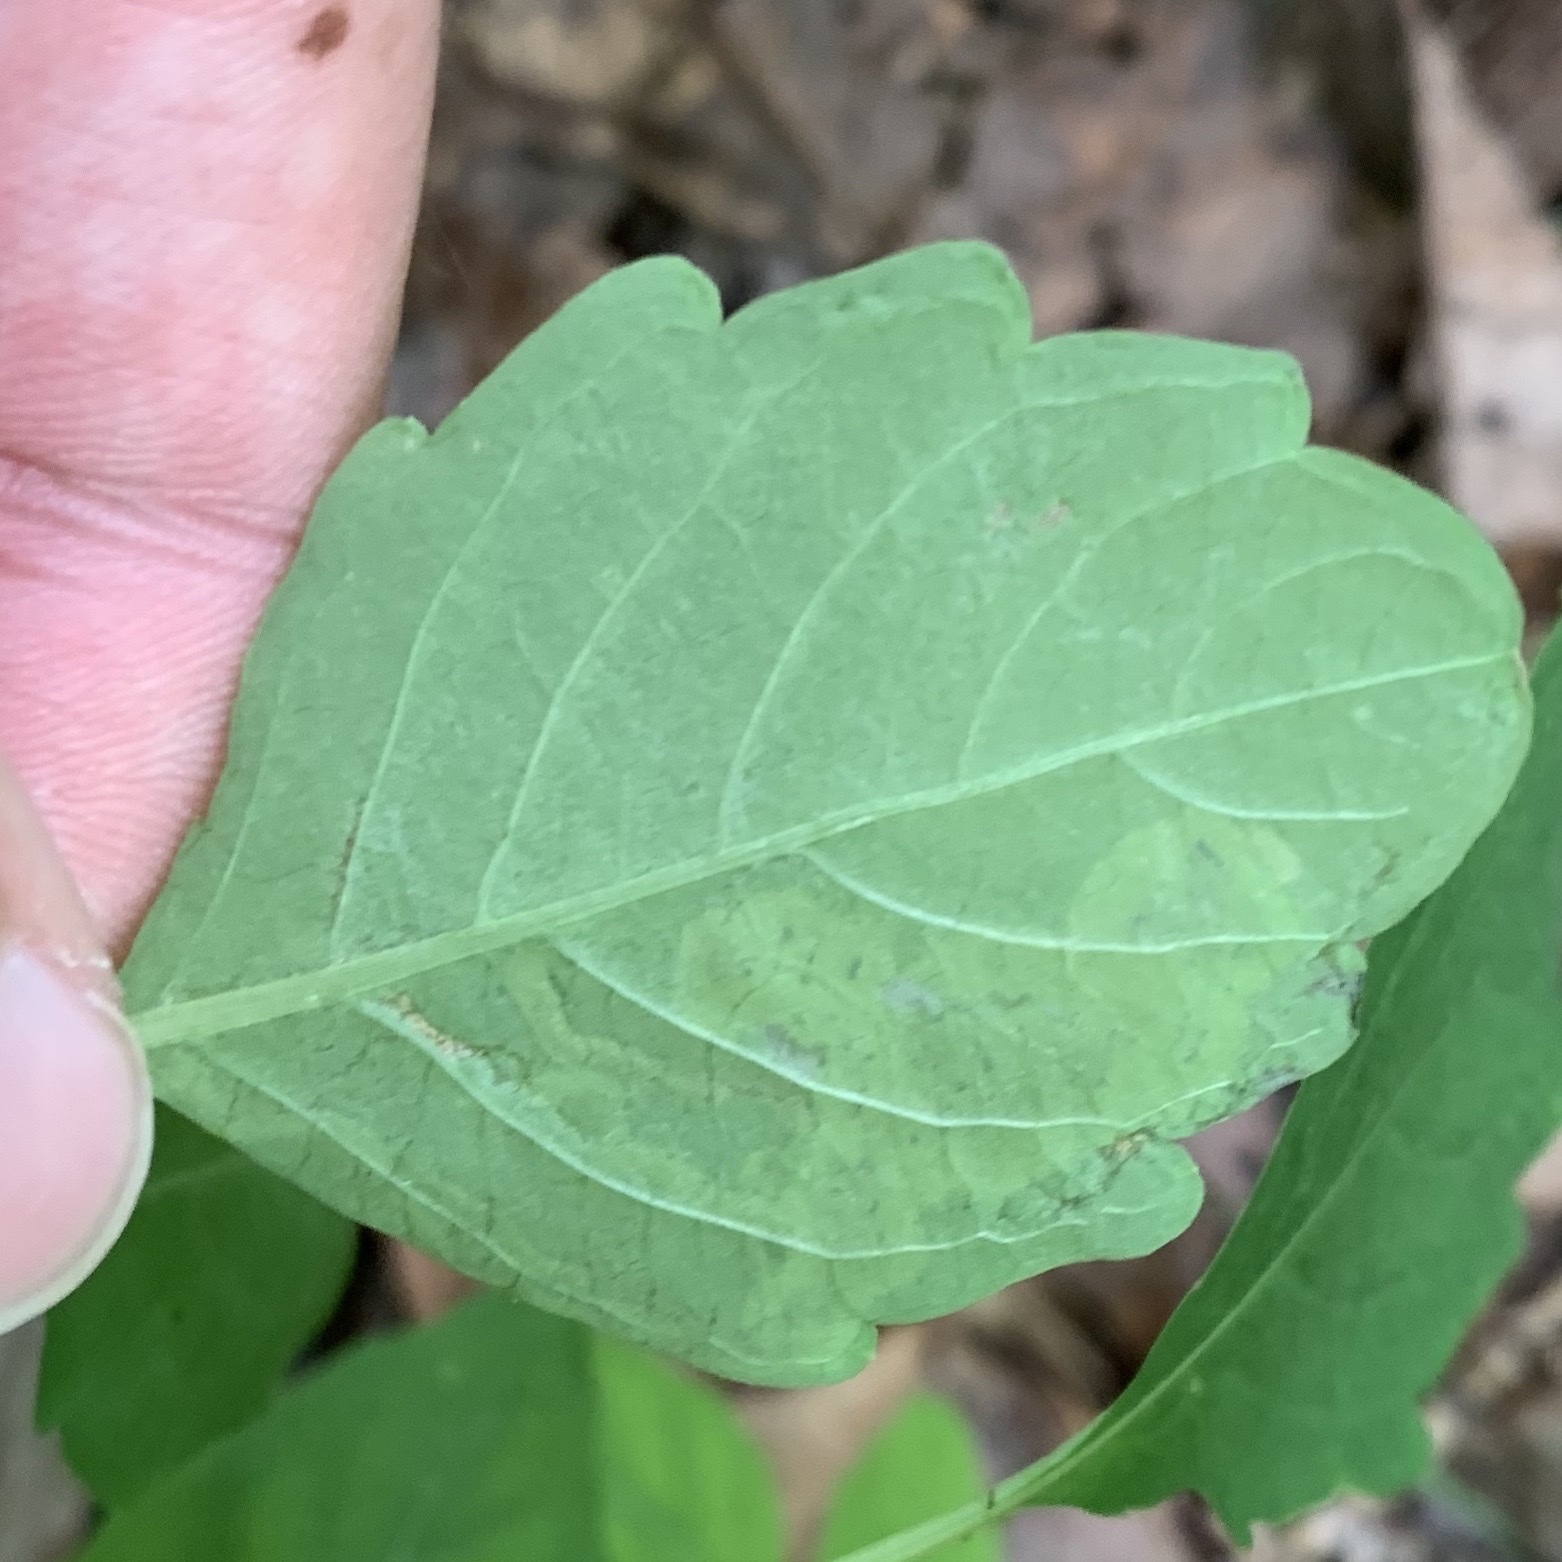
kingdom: Animalia
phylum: Arthropoda
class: Insecta
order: Diptera
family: Agromyzidae
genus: Phytoliriomyza
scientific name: Phytoliriomyza melampyga
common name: Jewelweed leaf-miner fly
